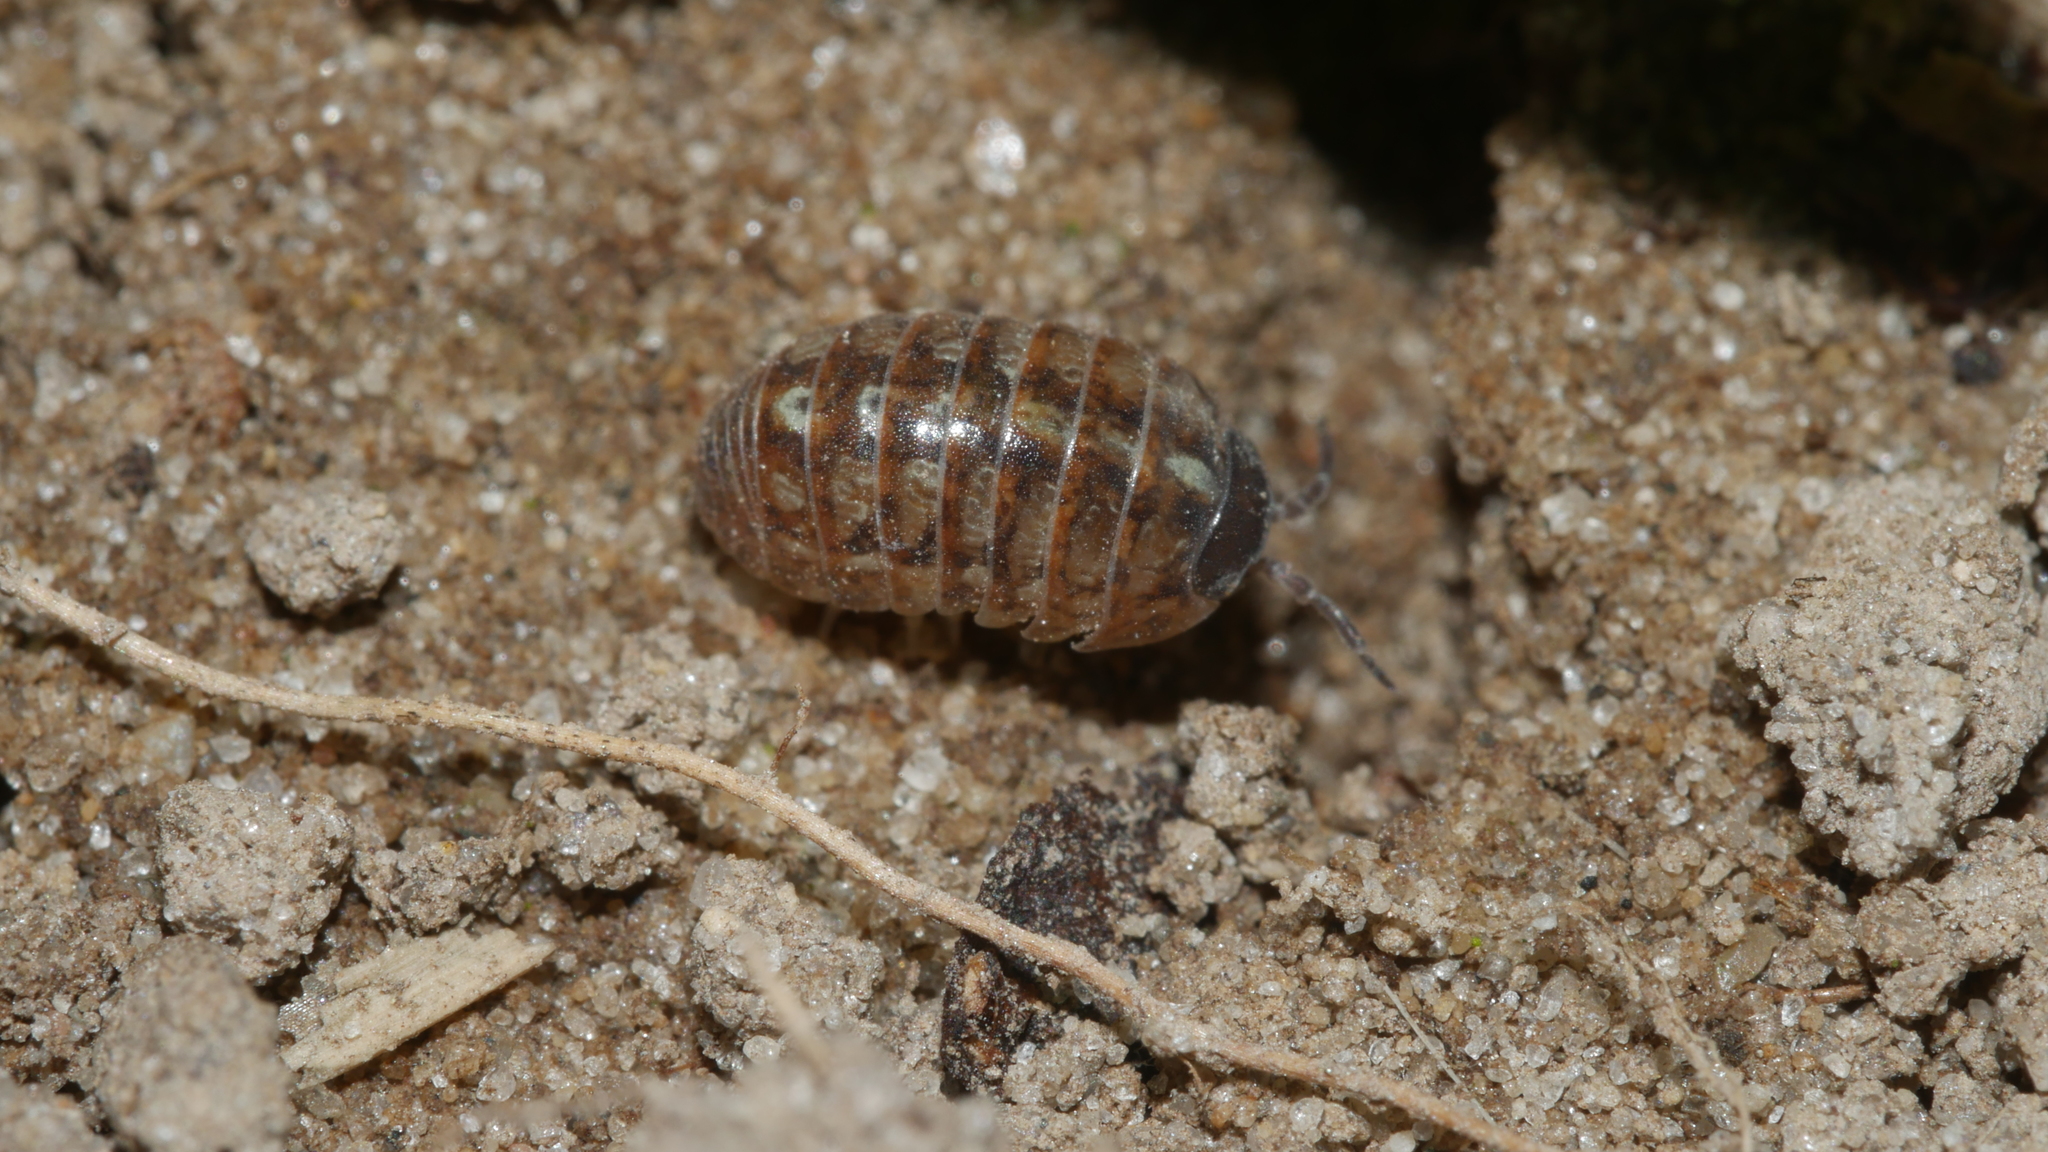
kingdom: Animalia
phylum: Arthropoda
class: Malacostraca
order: Isopoda
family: Armadillidiidae
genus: Armadillidium
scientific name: Armadillidium vulgare
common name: Common pill woodlouse
